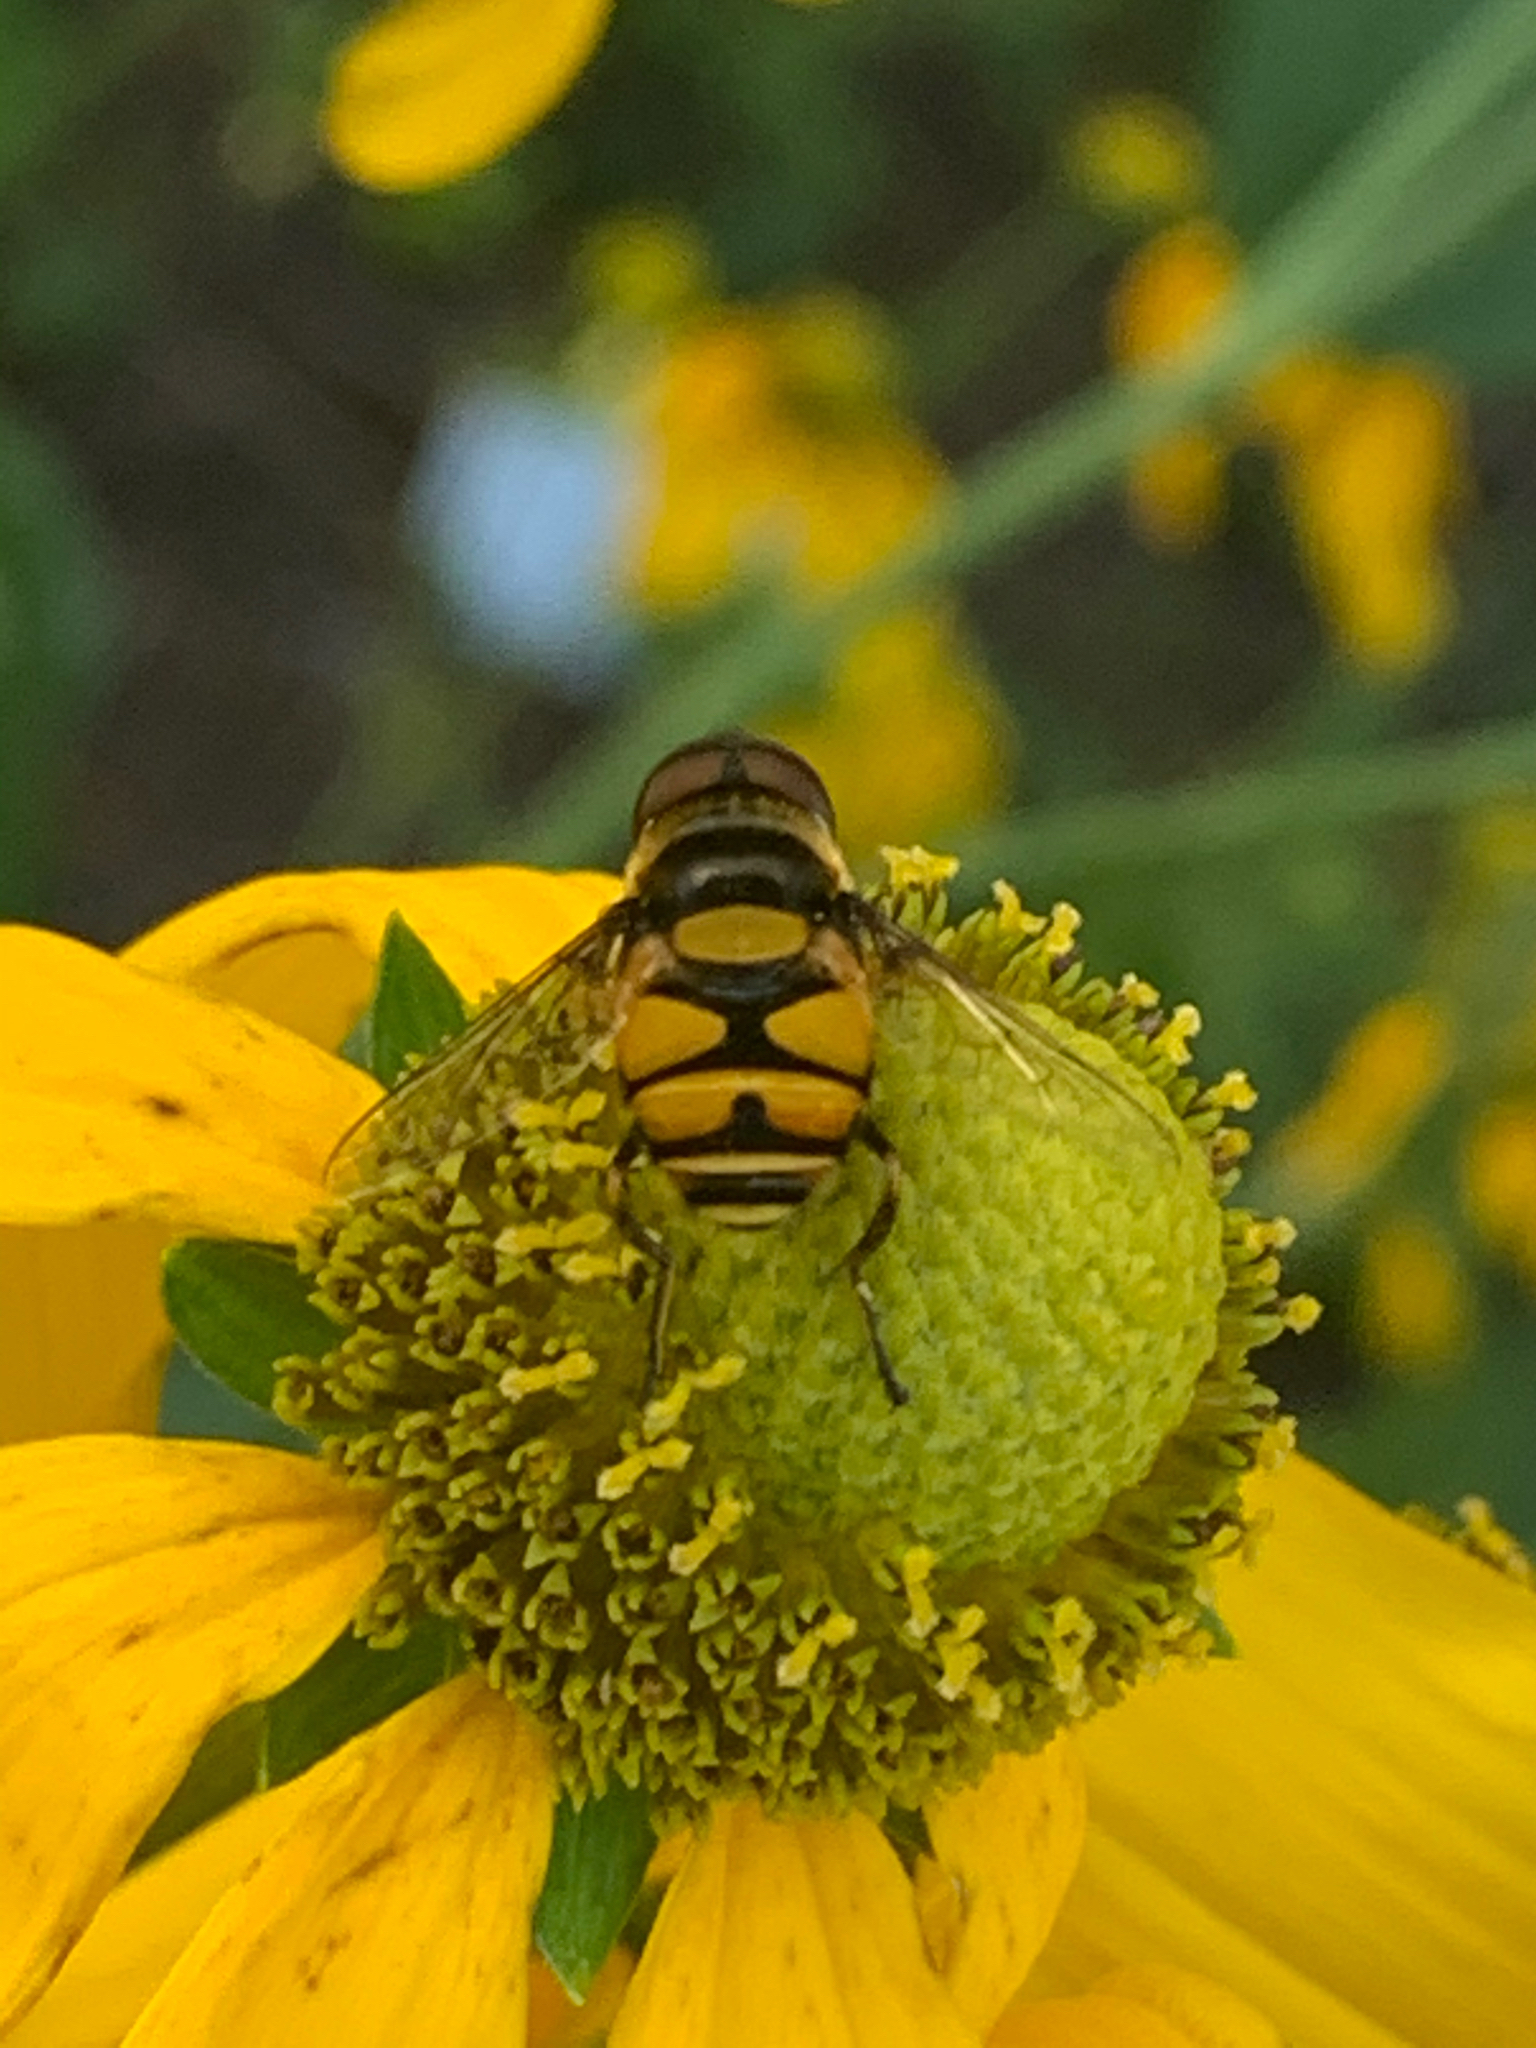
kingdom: Animalia
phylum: Arthropoda
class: Insecta
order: Diptera
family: Syrphidae
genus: Eristalis
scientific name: Eristalis transversa
